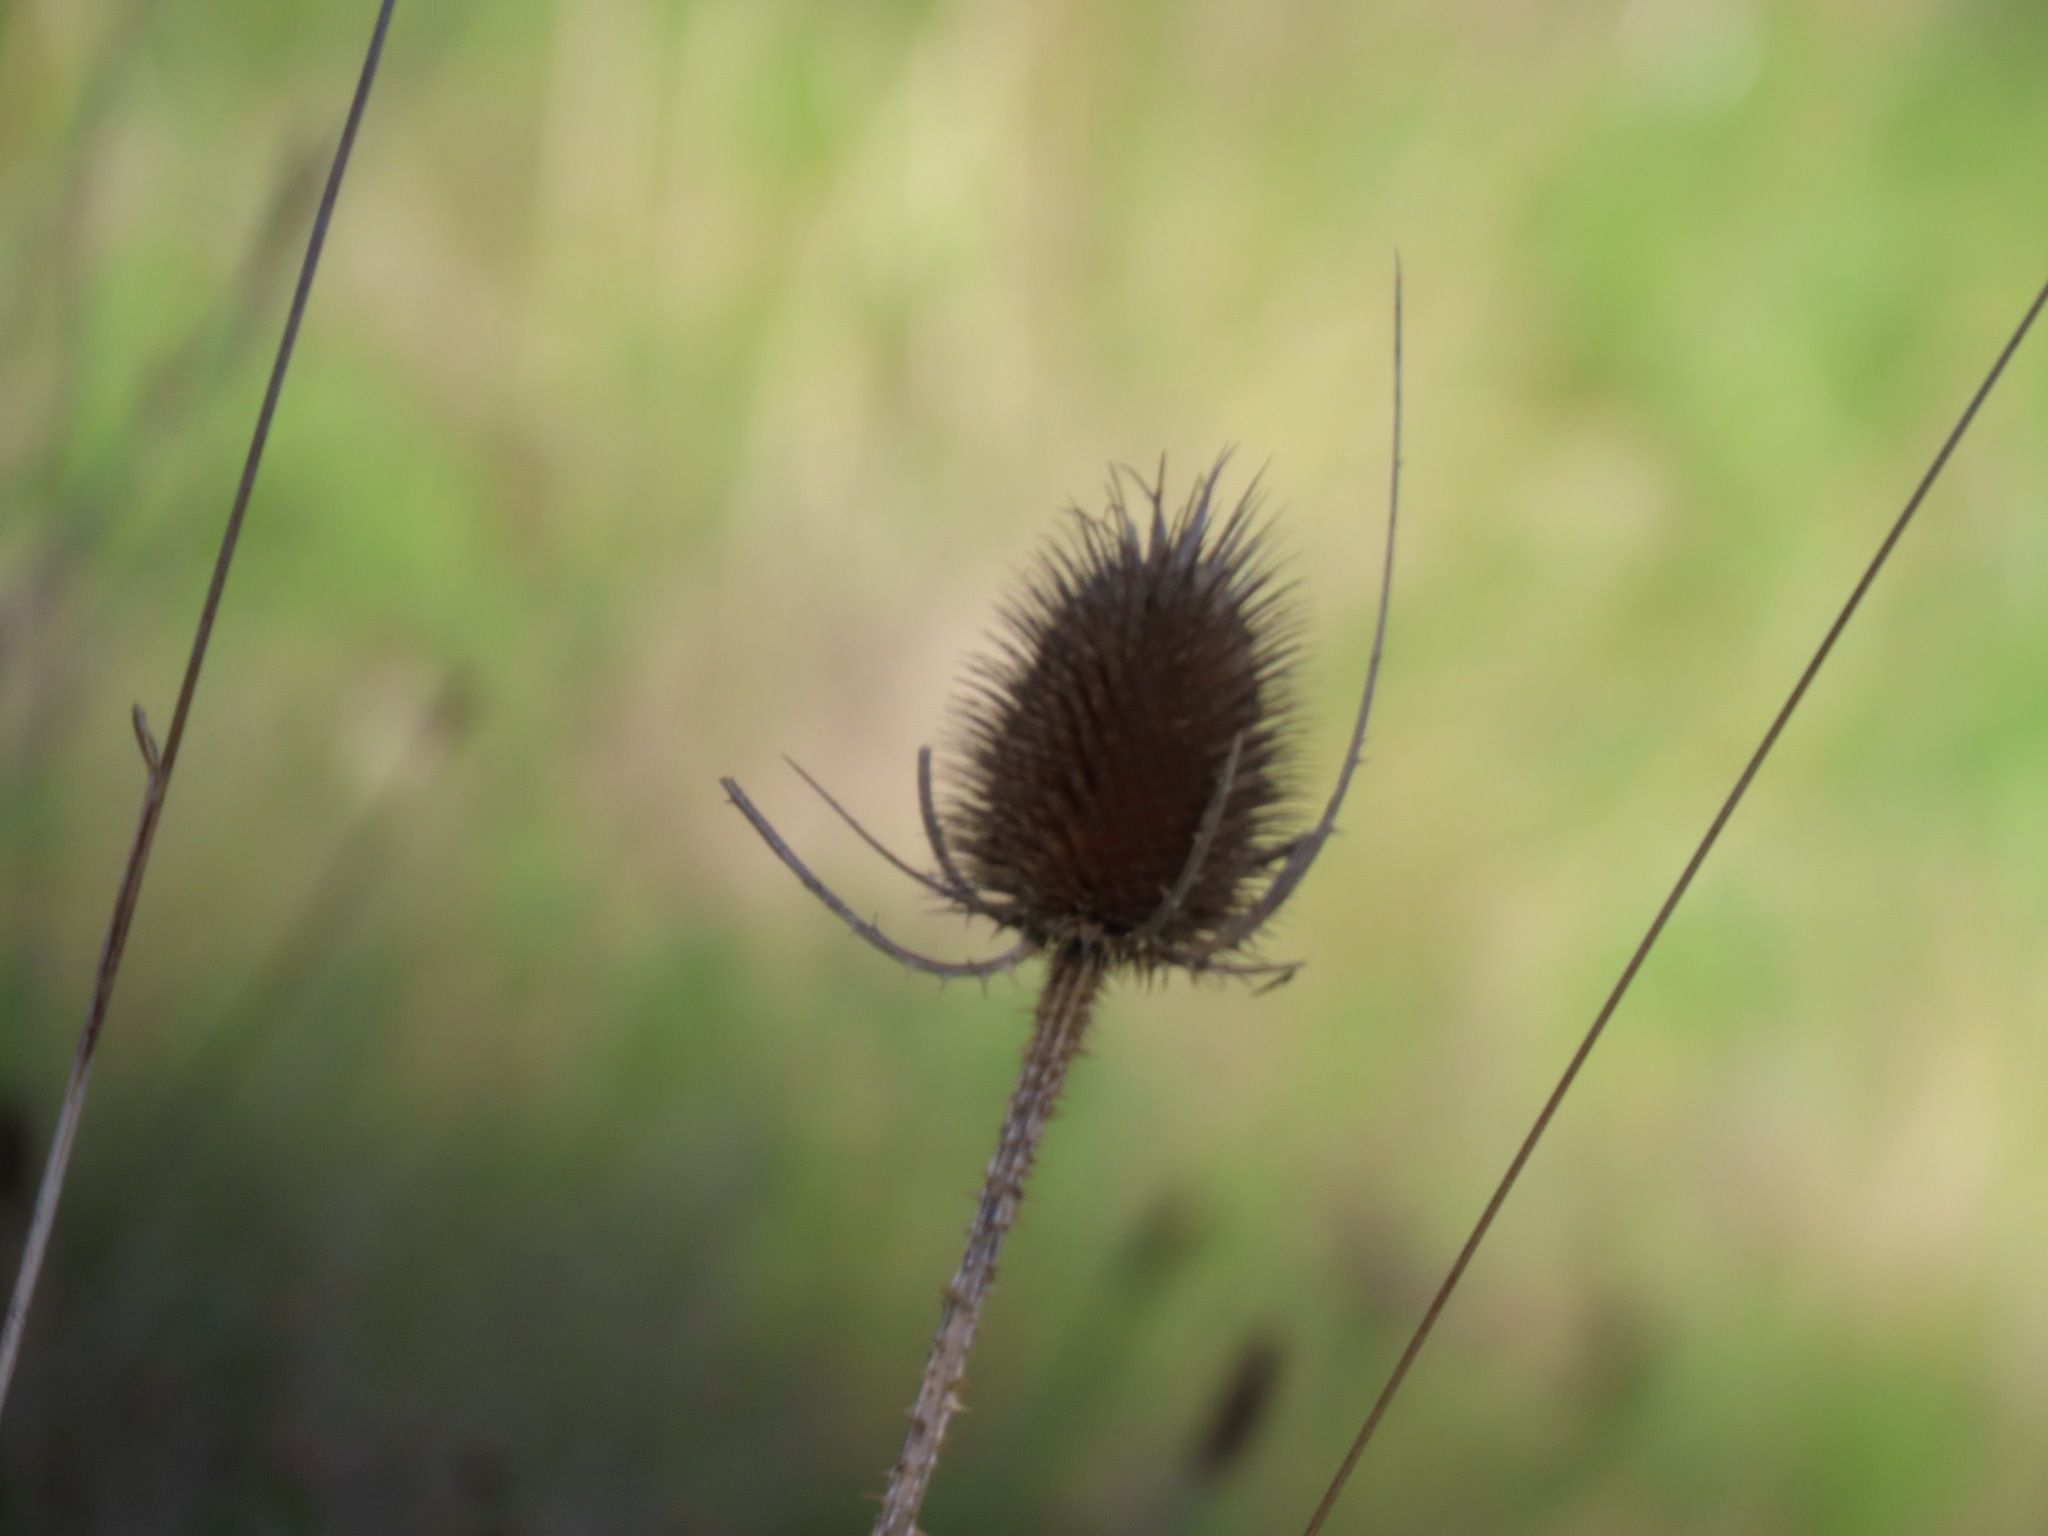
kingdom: Plantae
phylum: Tracheophyta
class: Magnoliopsida
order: Dipsacales
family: Caprifoliaceae
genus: Dipsacus
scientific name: Dipsacus fullonum
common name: Teasel
